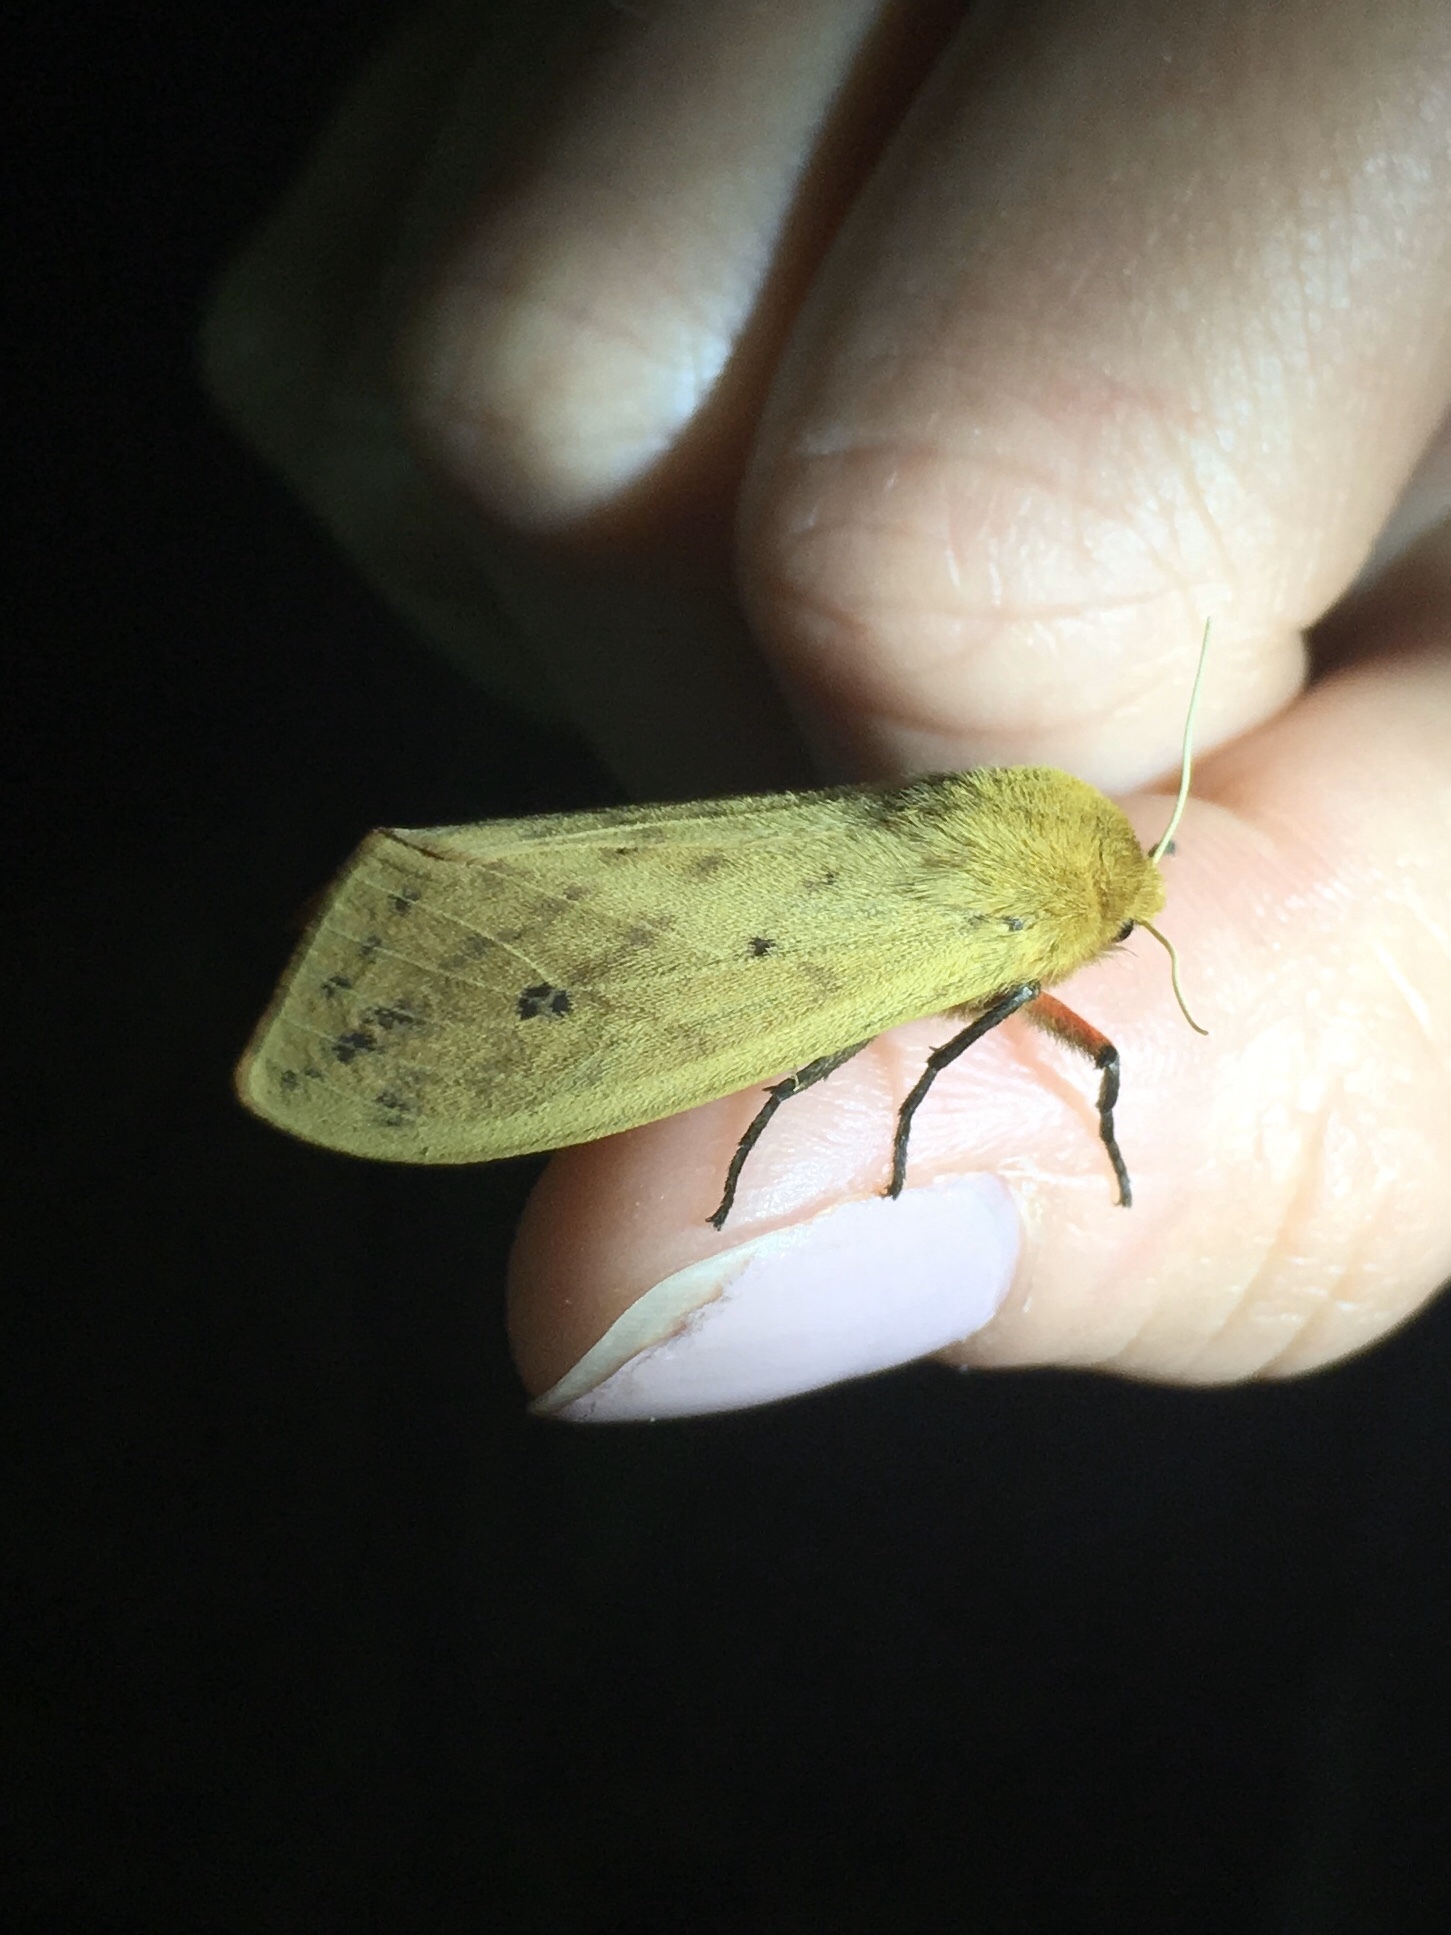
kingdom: Animalia
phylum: Arthropoda
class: Insecta
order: Lepidoptera
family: Erebidae
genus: Pyrrharctia
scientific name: Pyrrharctia isabella
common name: Isabella tiger moth
